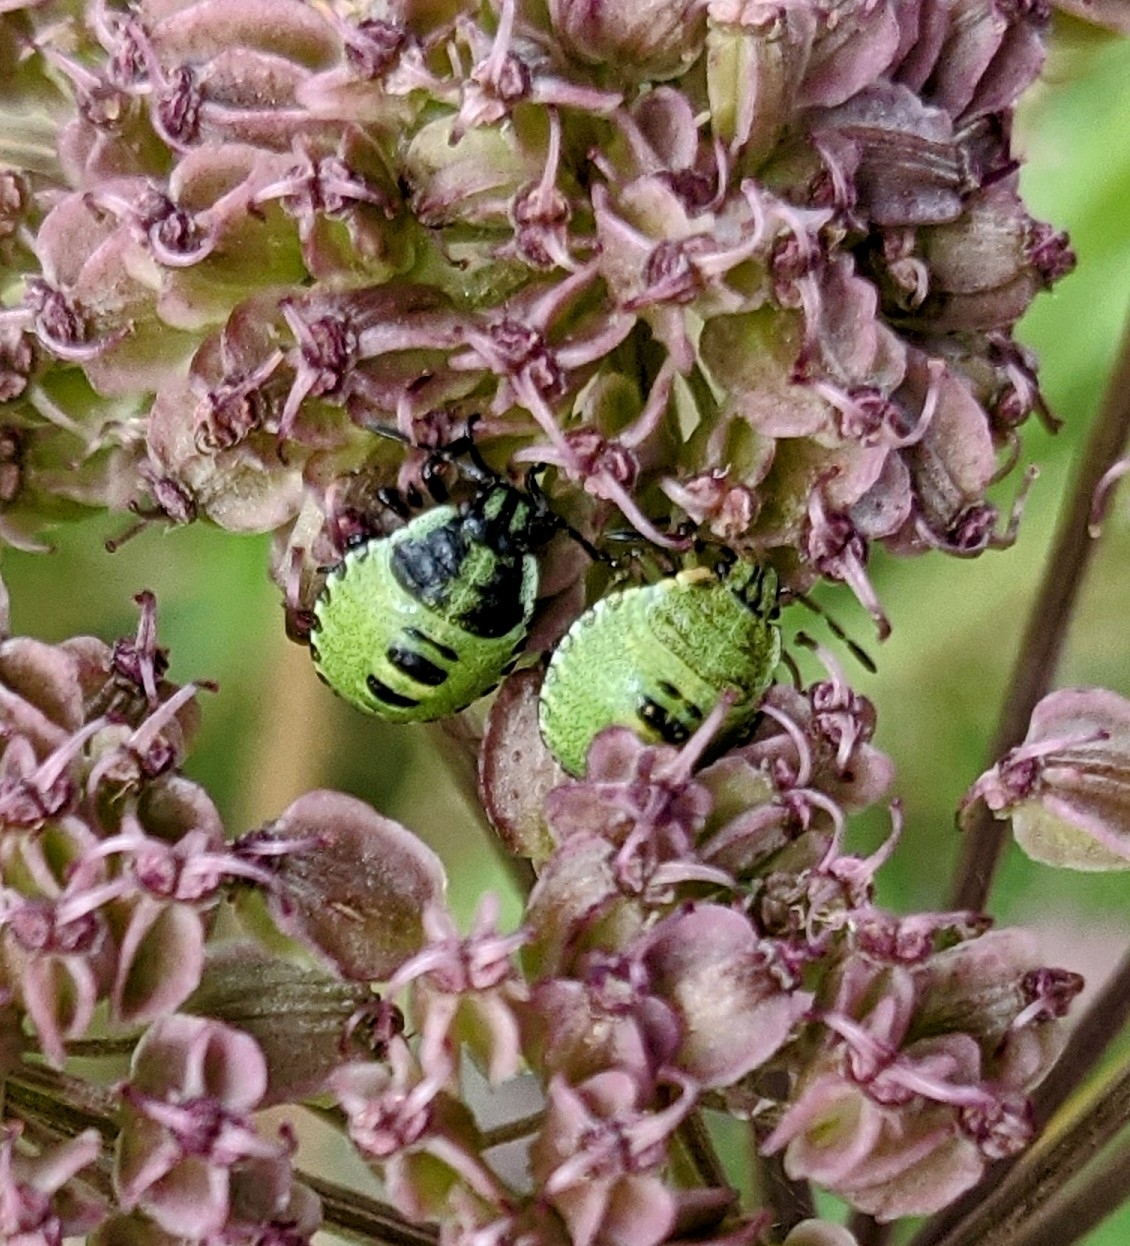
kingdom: Animalia
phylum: Arthropoda
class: Insecta
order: Hemiptera
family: Pentatomidae
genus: Palomena
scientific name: Palomena prasina
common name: Green shieldbug
